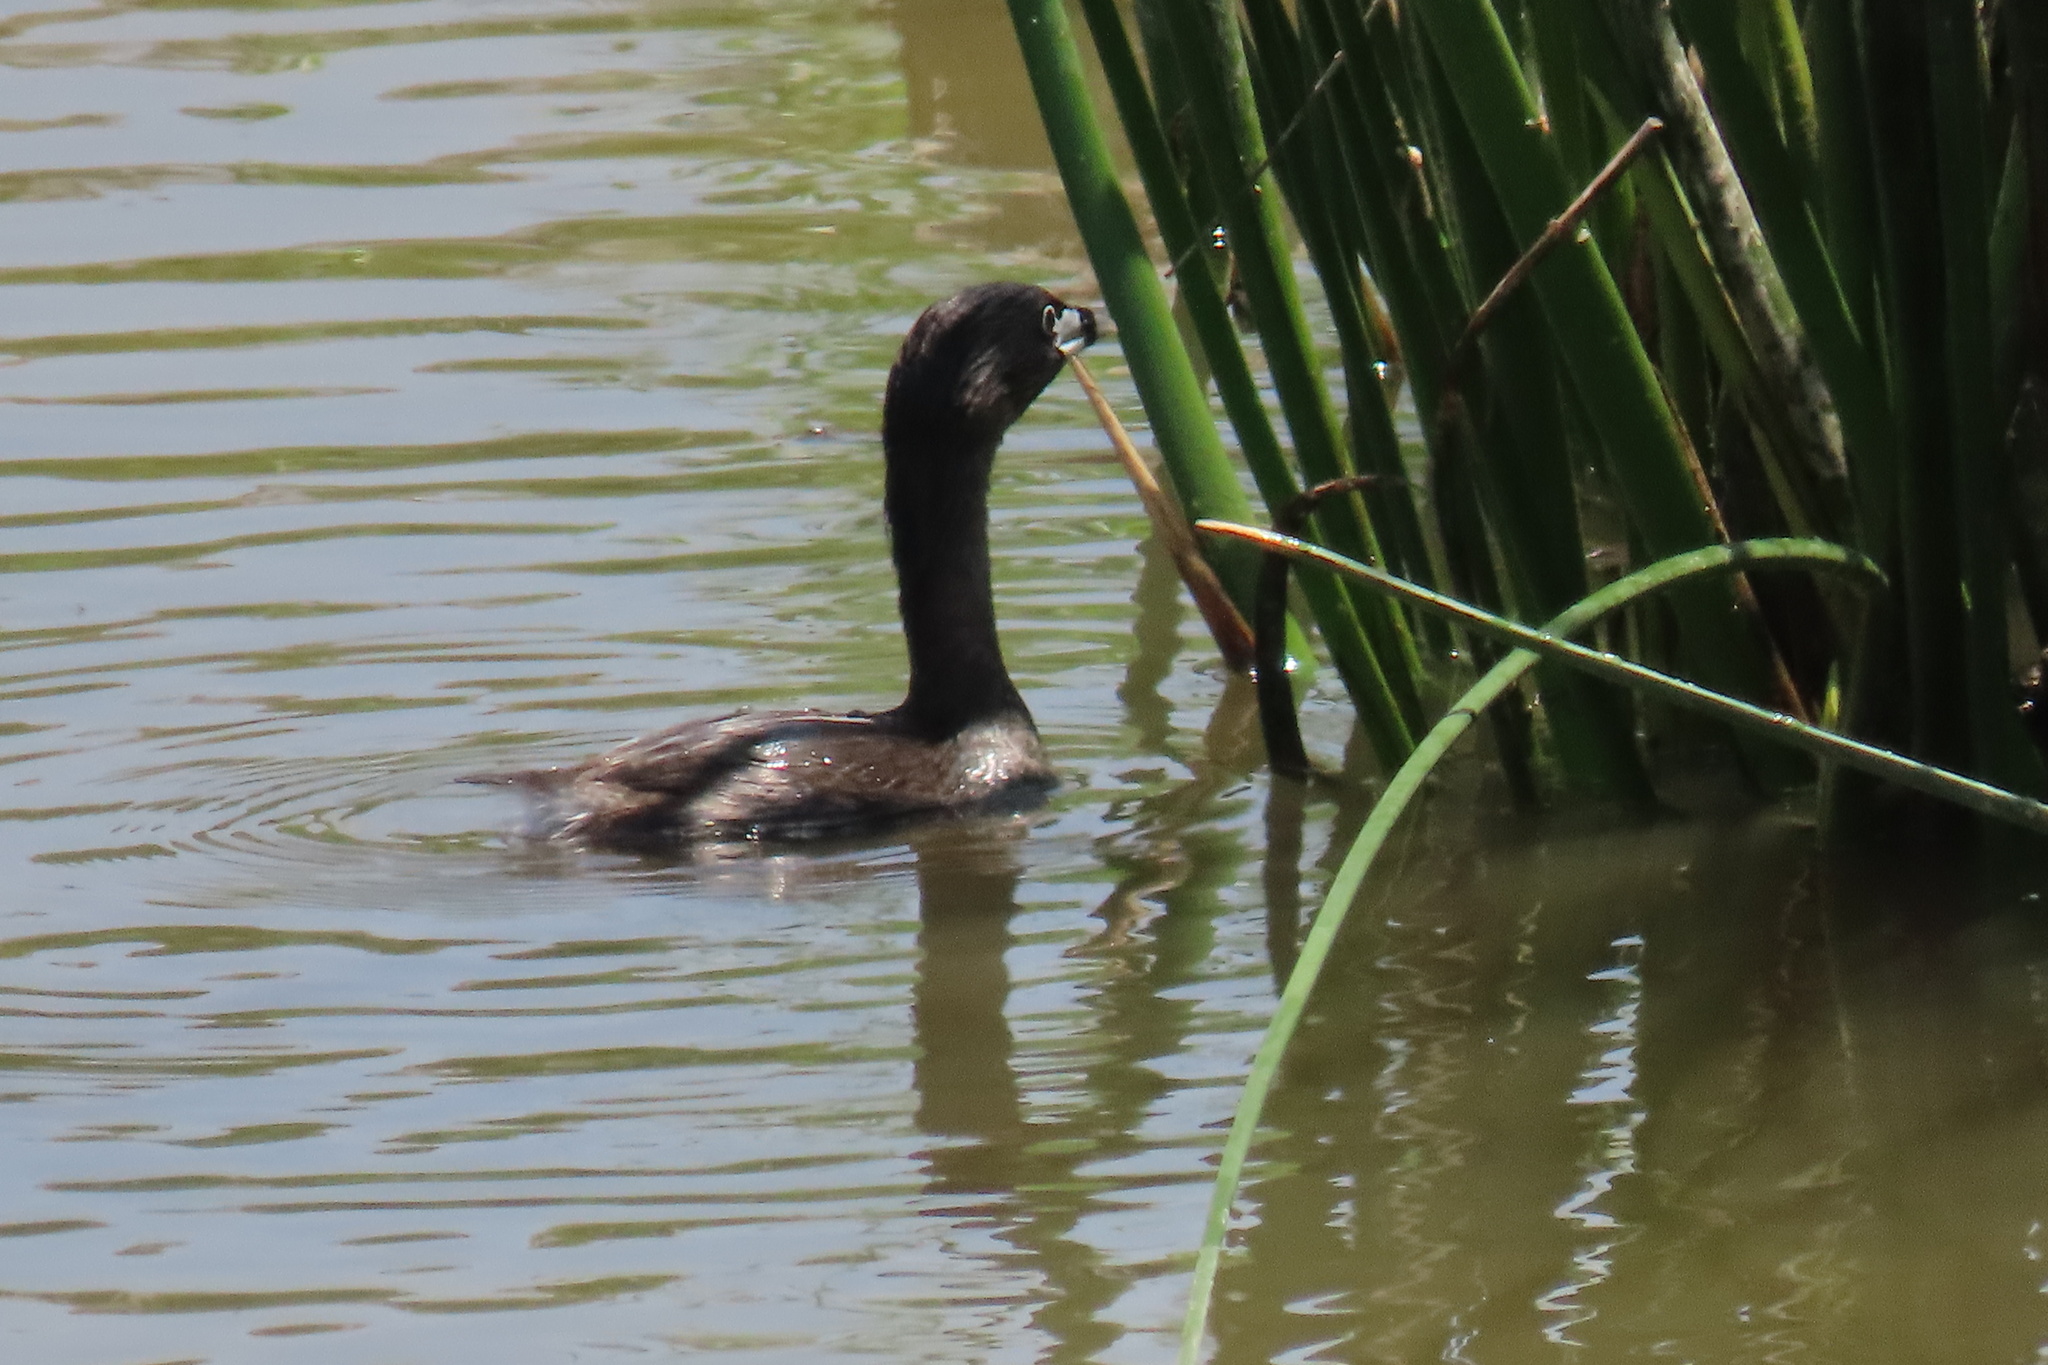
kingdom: Animalia
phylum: Chordata
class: Aves
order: Podicipediformes
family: Podicipedidae
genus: Podilymbus
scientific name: Podilymbus podiceps
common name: Pied-billed grebe
